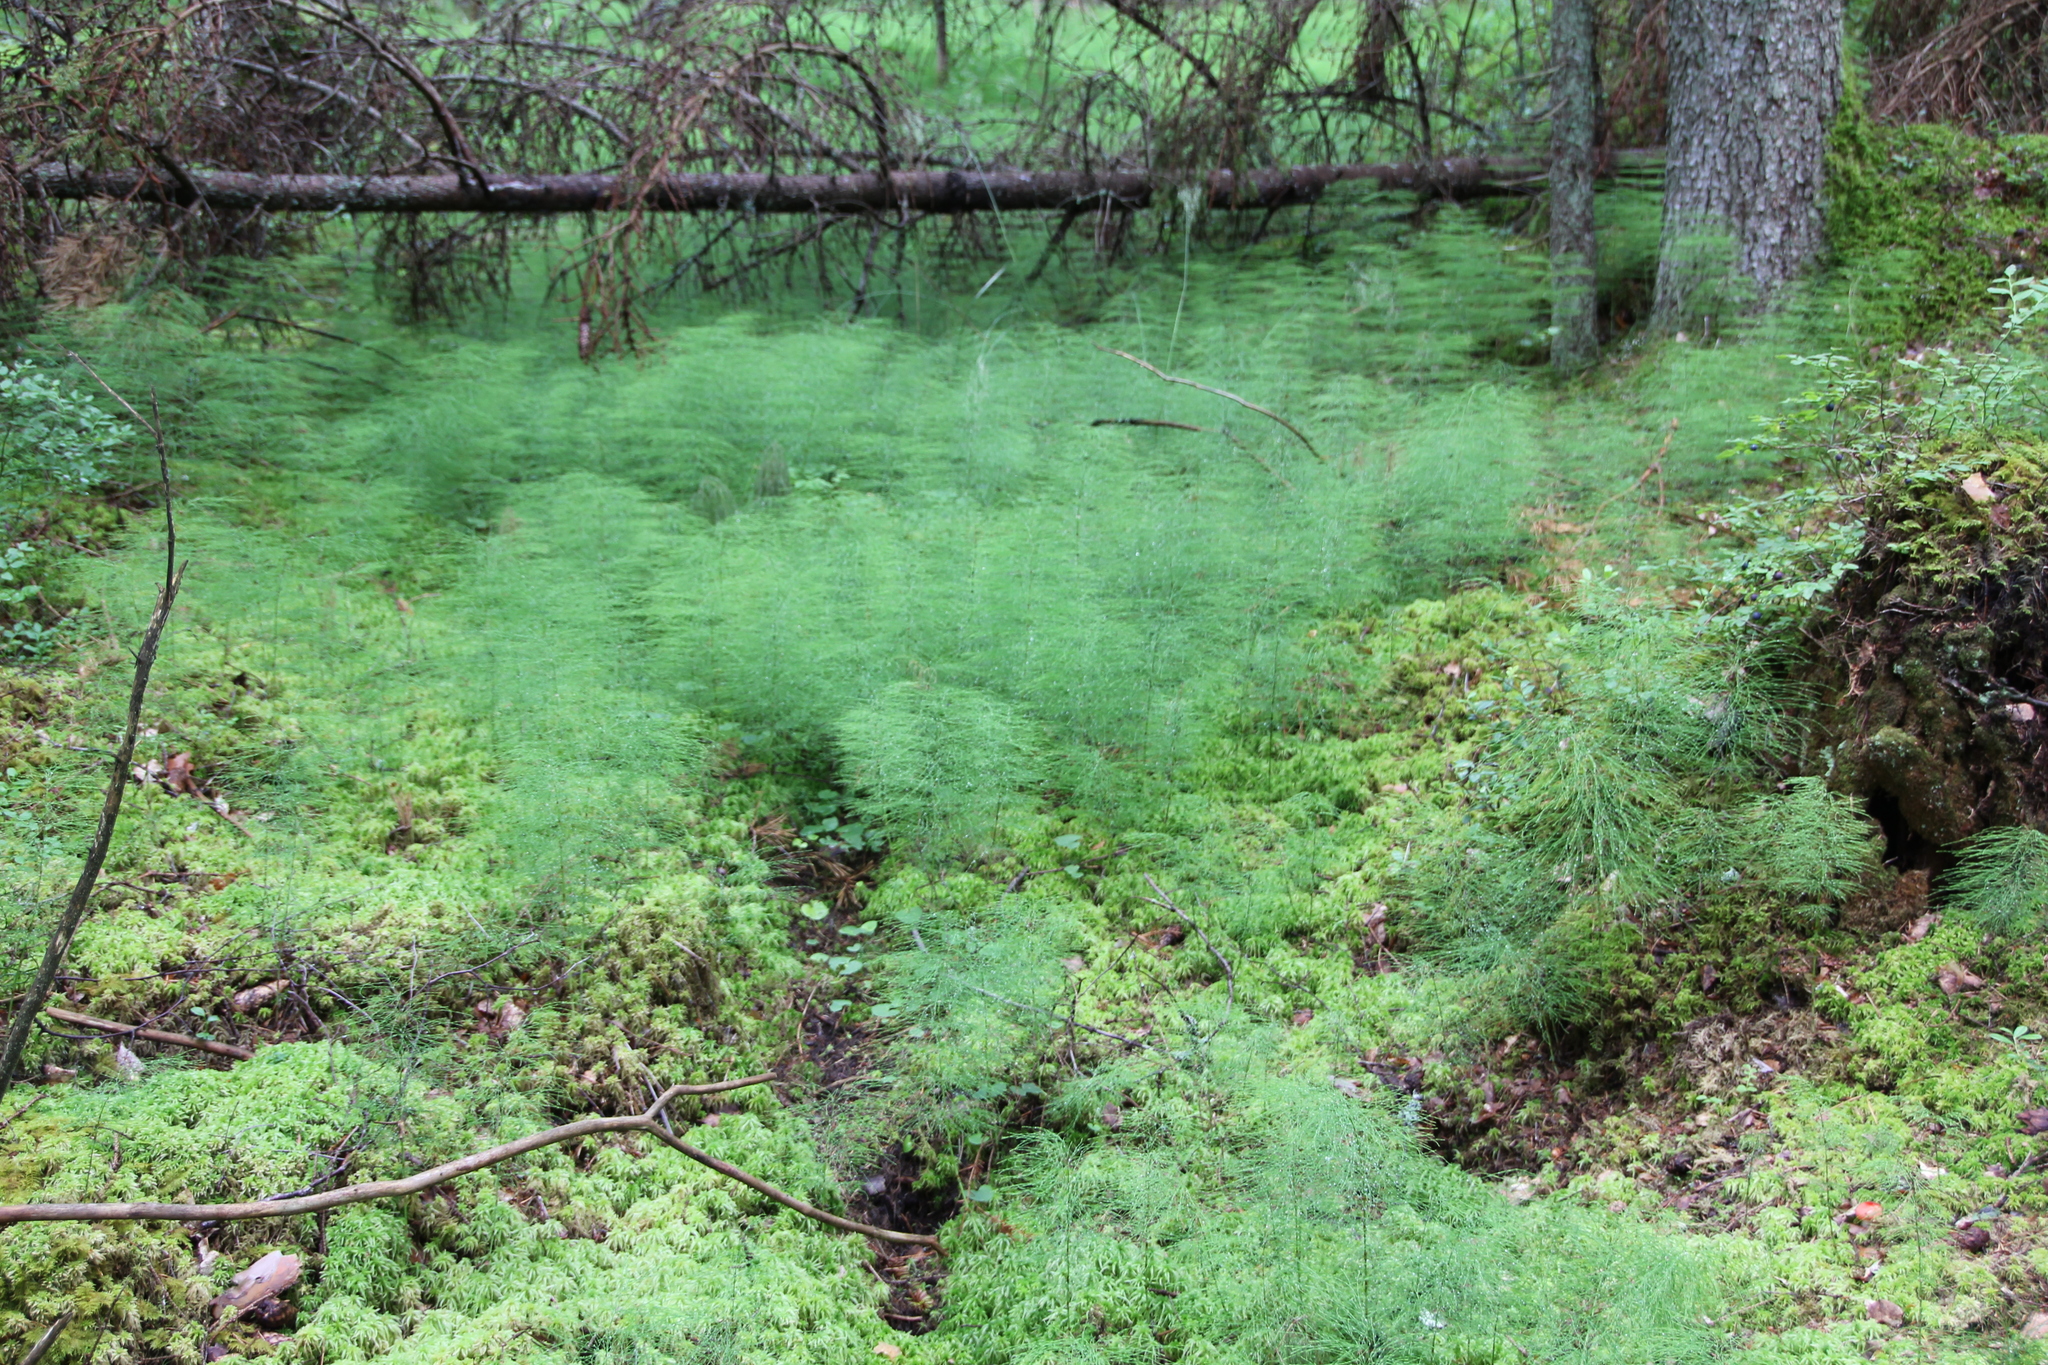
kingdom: Plantae
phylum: Tracheophyta
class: Polypodiopsida
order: Equisetales
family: Equisetaceae
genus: Equisetum
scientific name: Equisetum sylvaticum
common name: Wood horsetail
